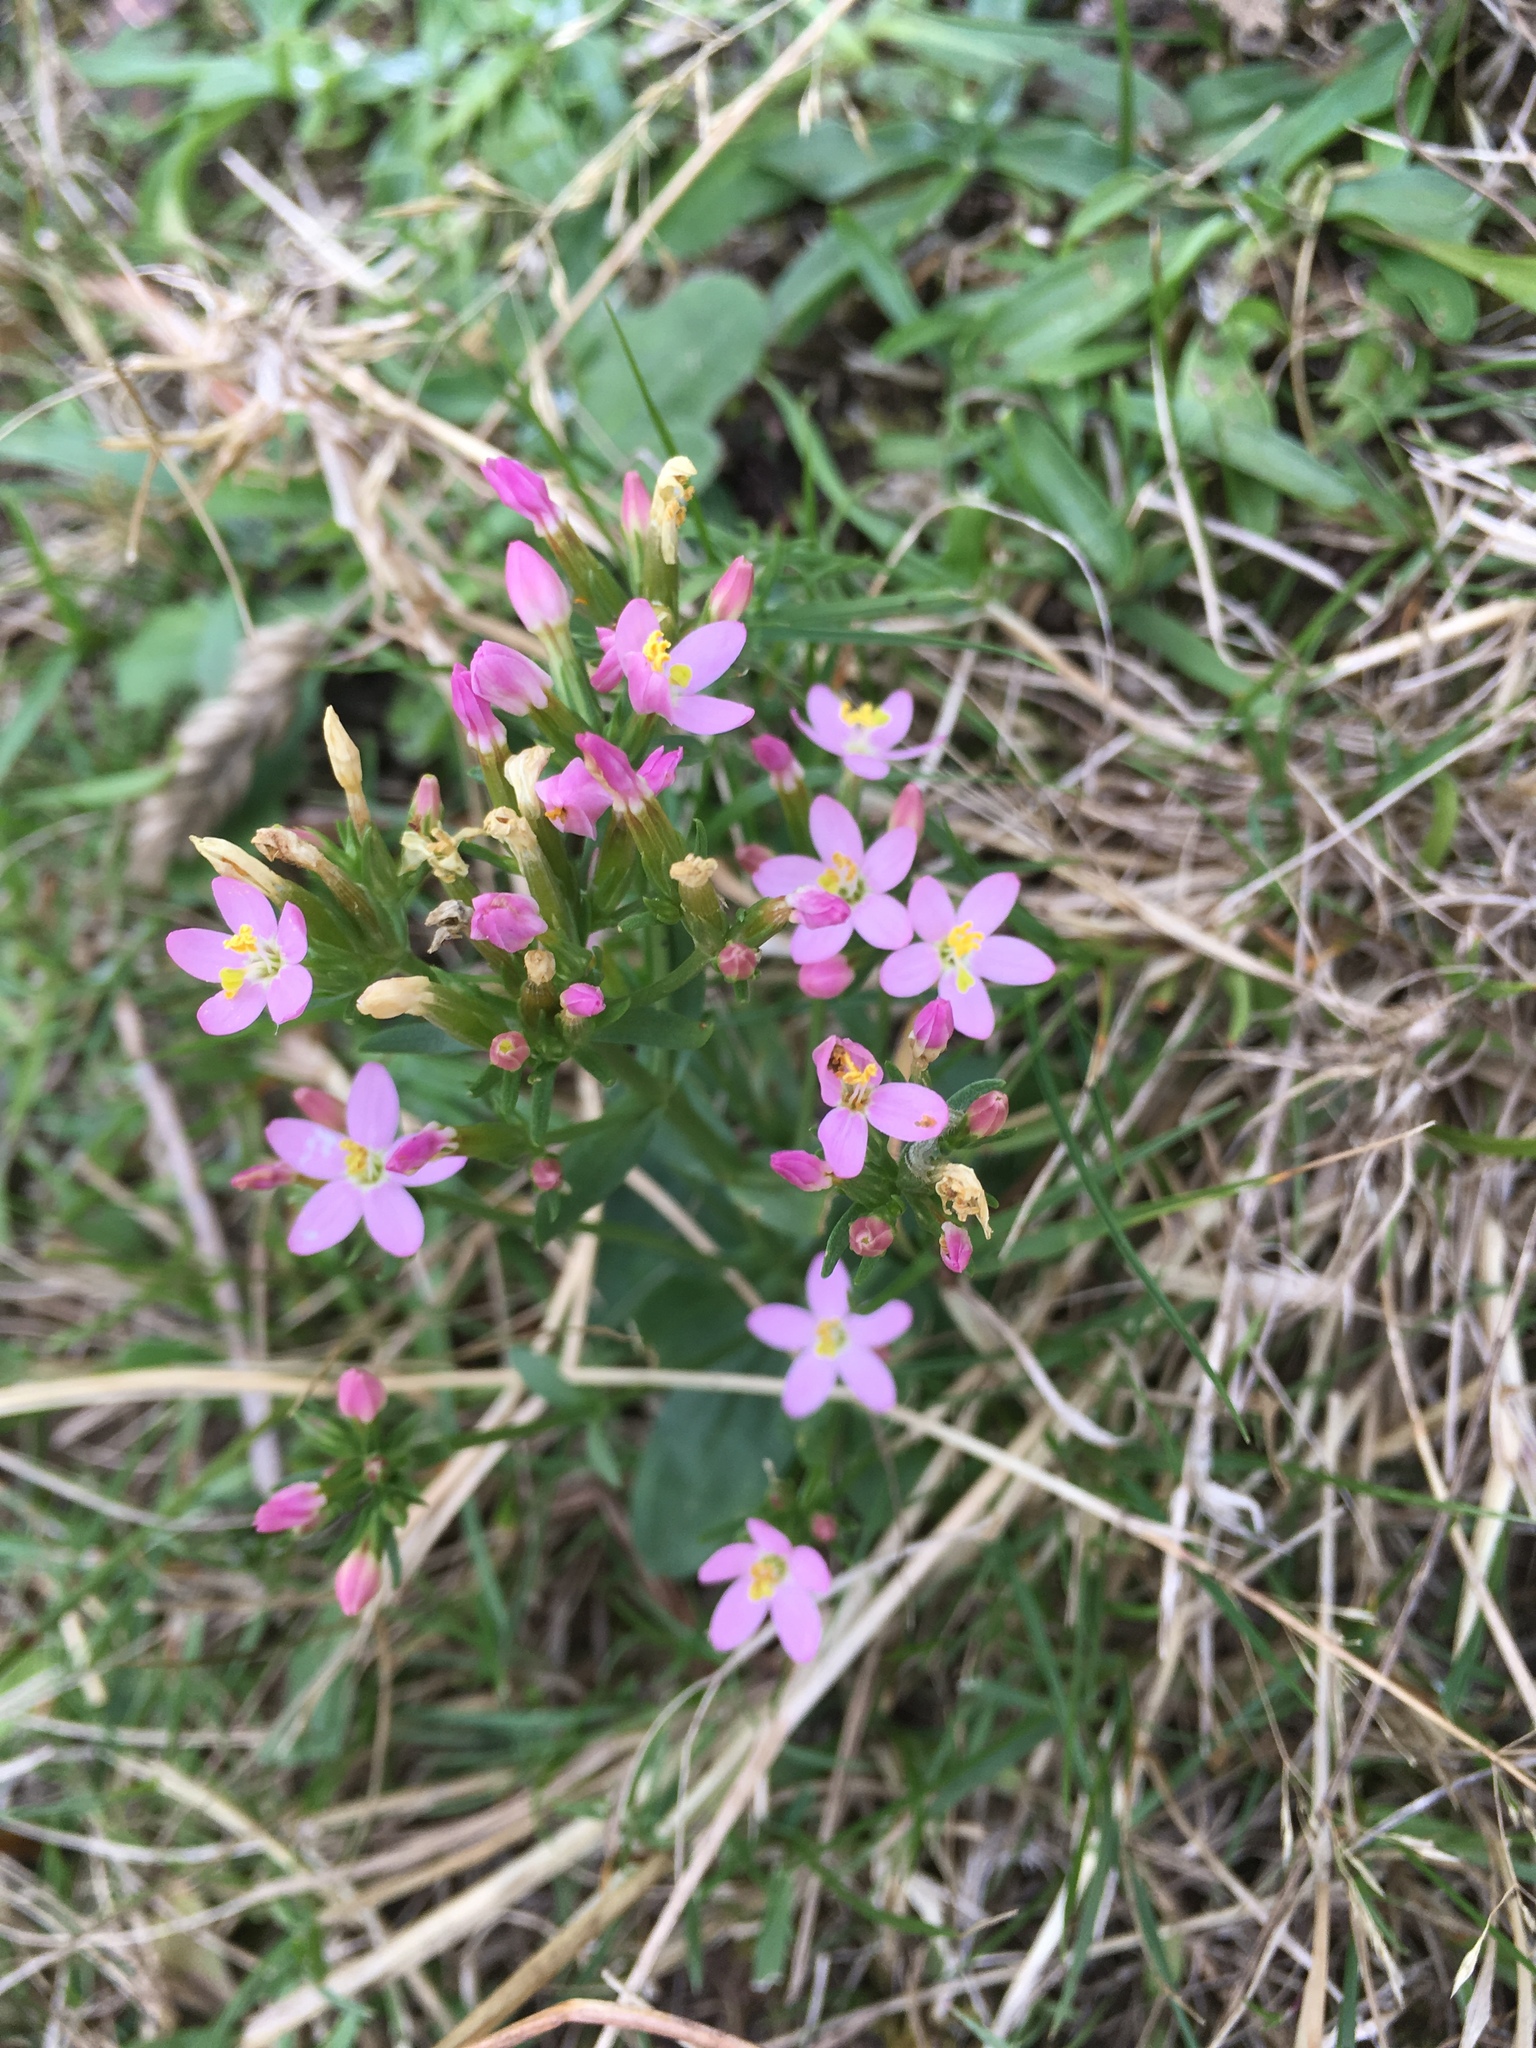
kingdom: Plantae
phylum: Tracheophyta
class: Magnoliopsida
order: Gentianales
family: Gentianaceae
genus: Centaurium
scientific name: Centaurium erythraea
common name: Common centaury
